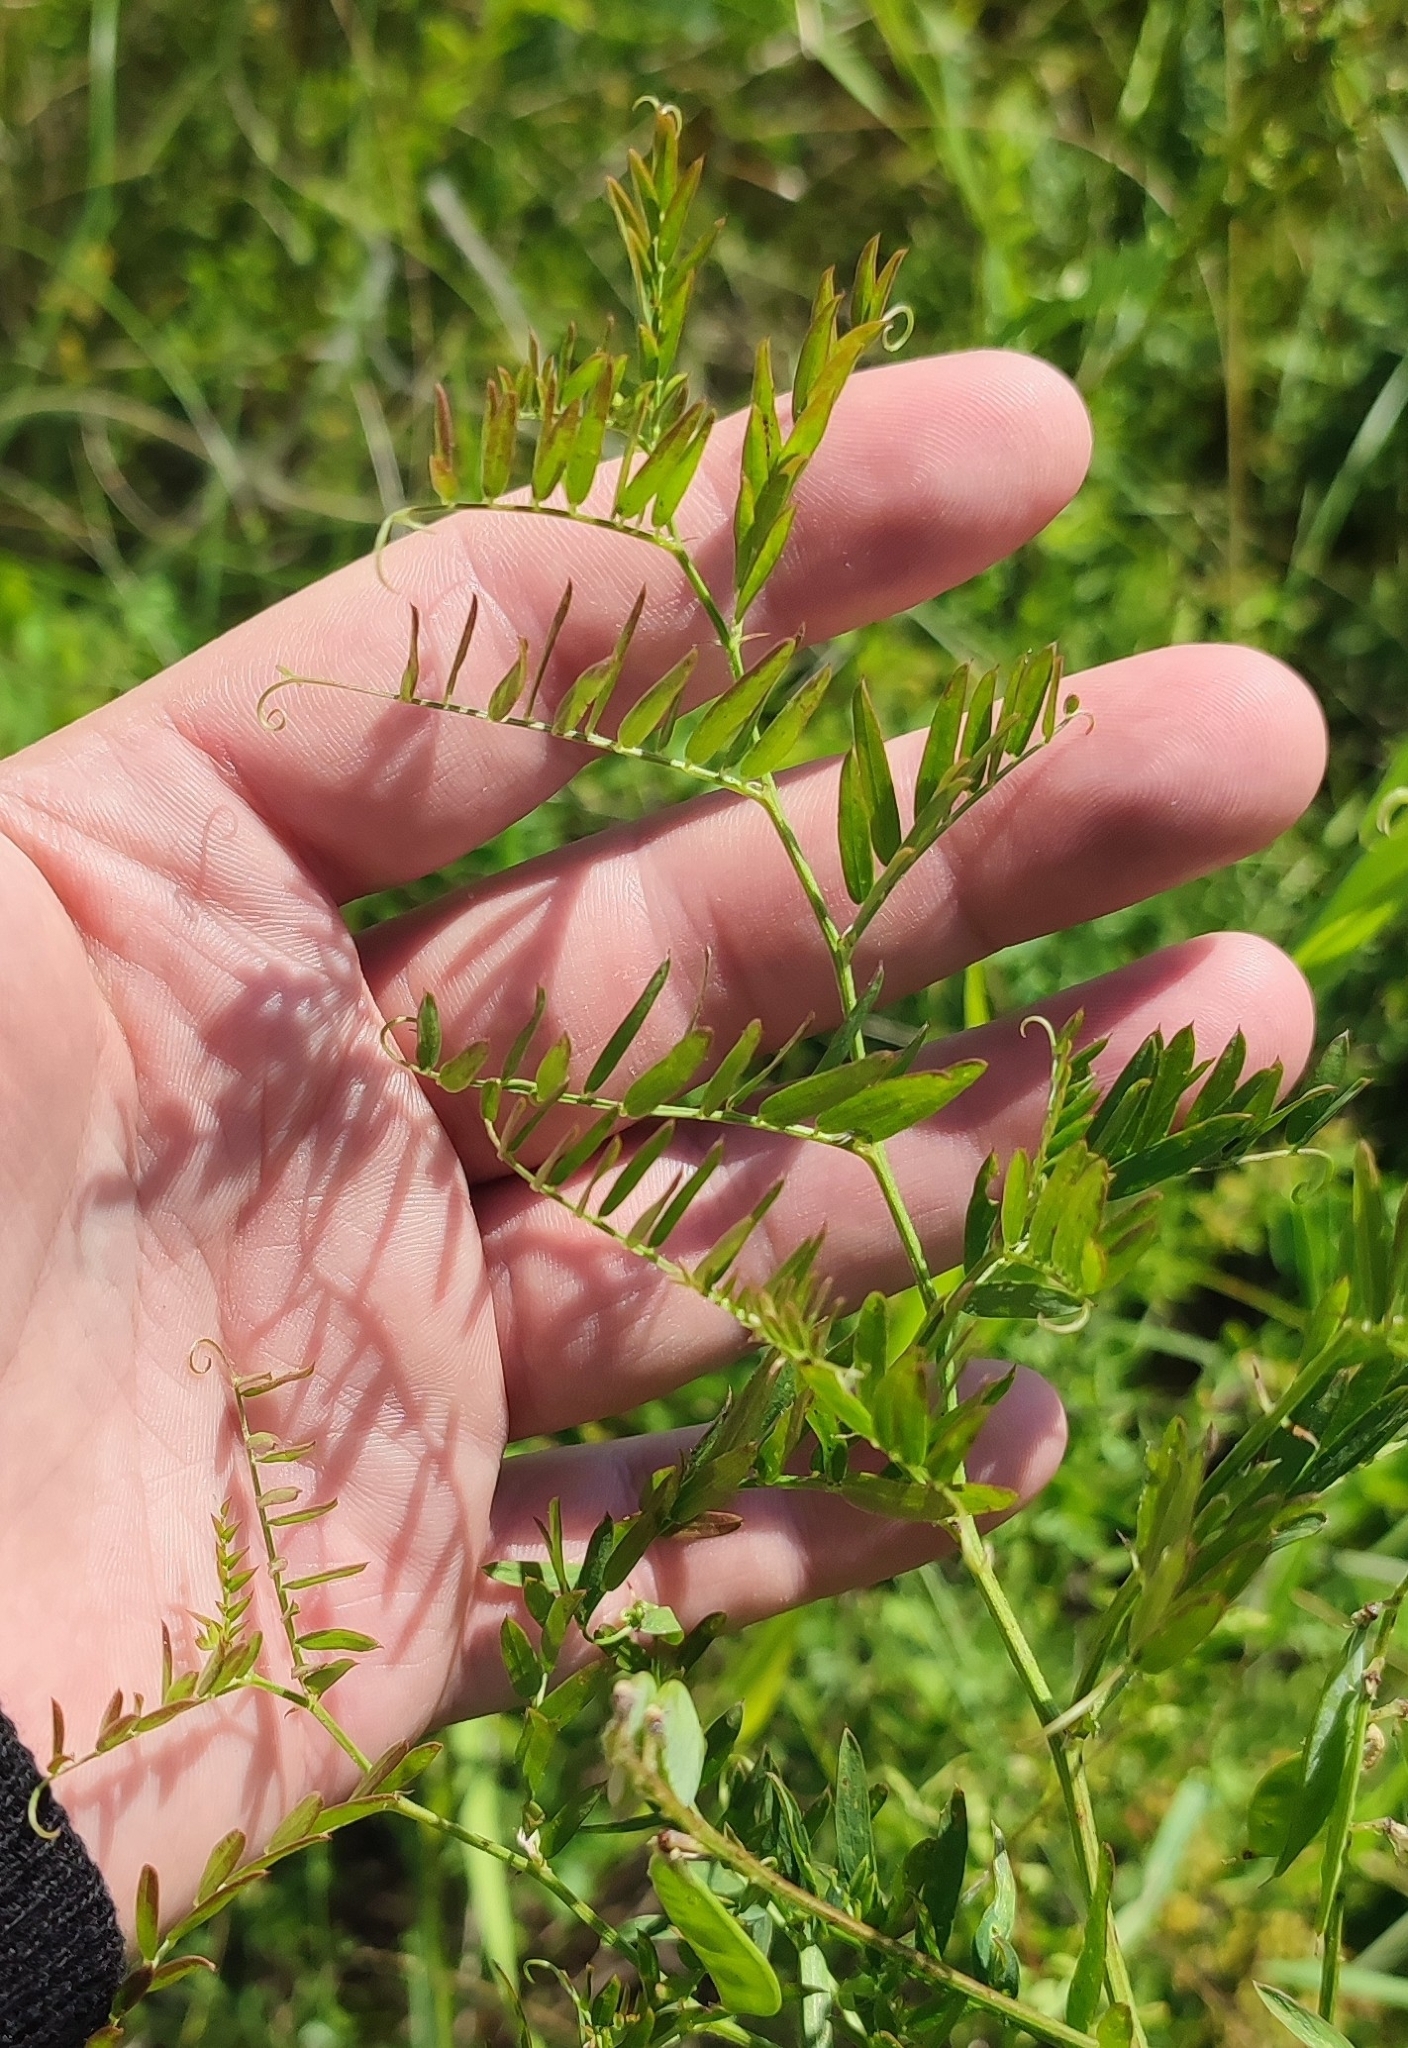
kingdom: Plantae
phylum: Tracheophyta
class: Magnoliopsida
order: Fabales
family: Fabaceae
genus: Vicia
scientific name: Vicia tenuifolia
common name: Fine-leaved vetch
